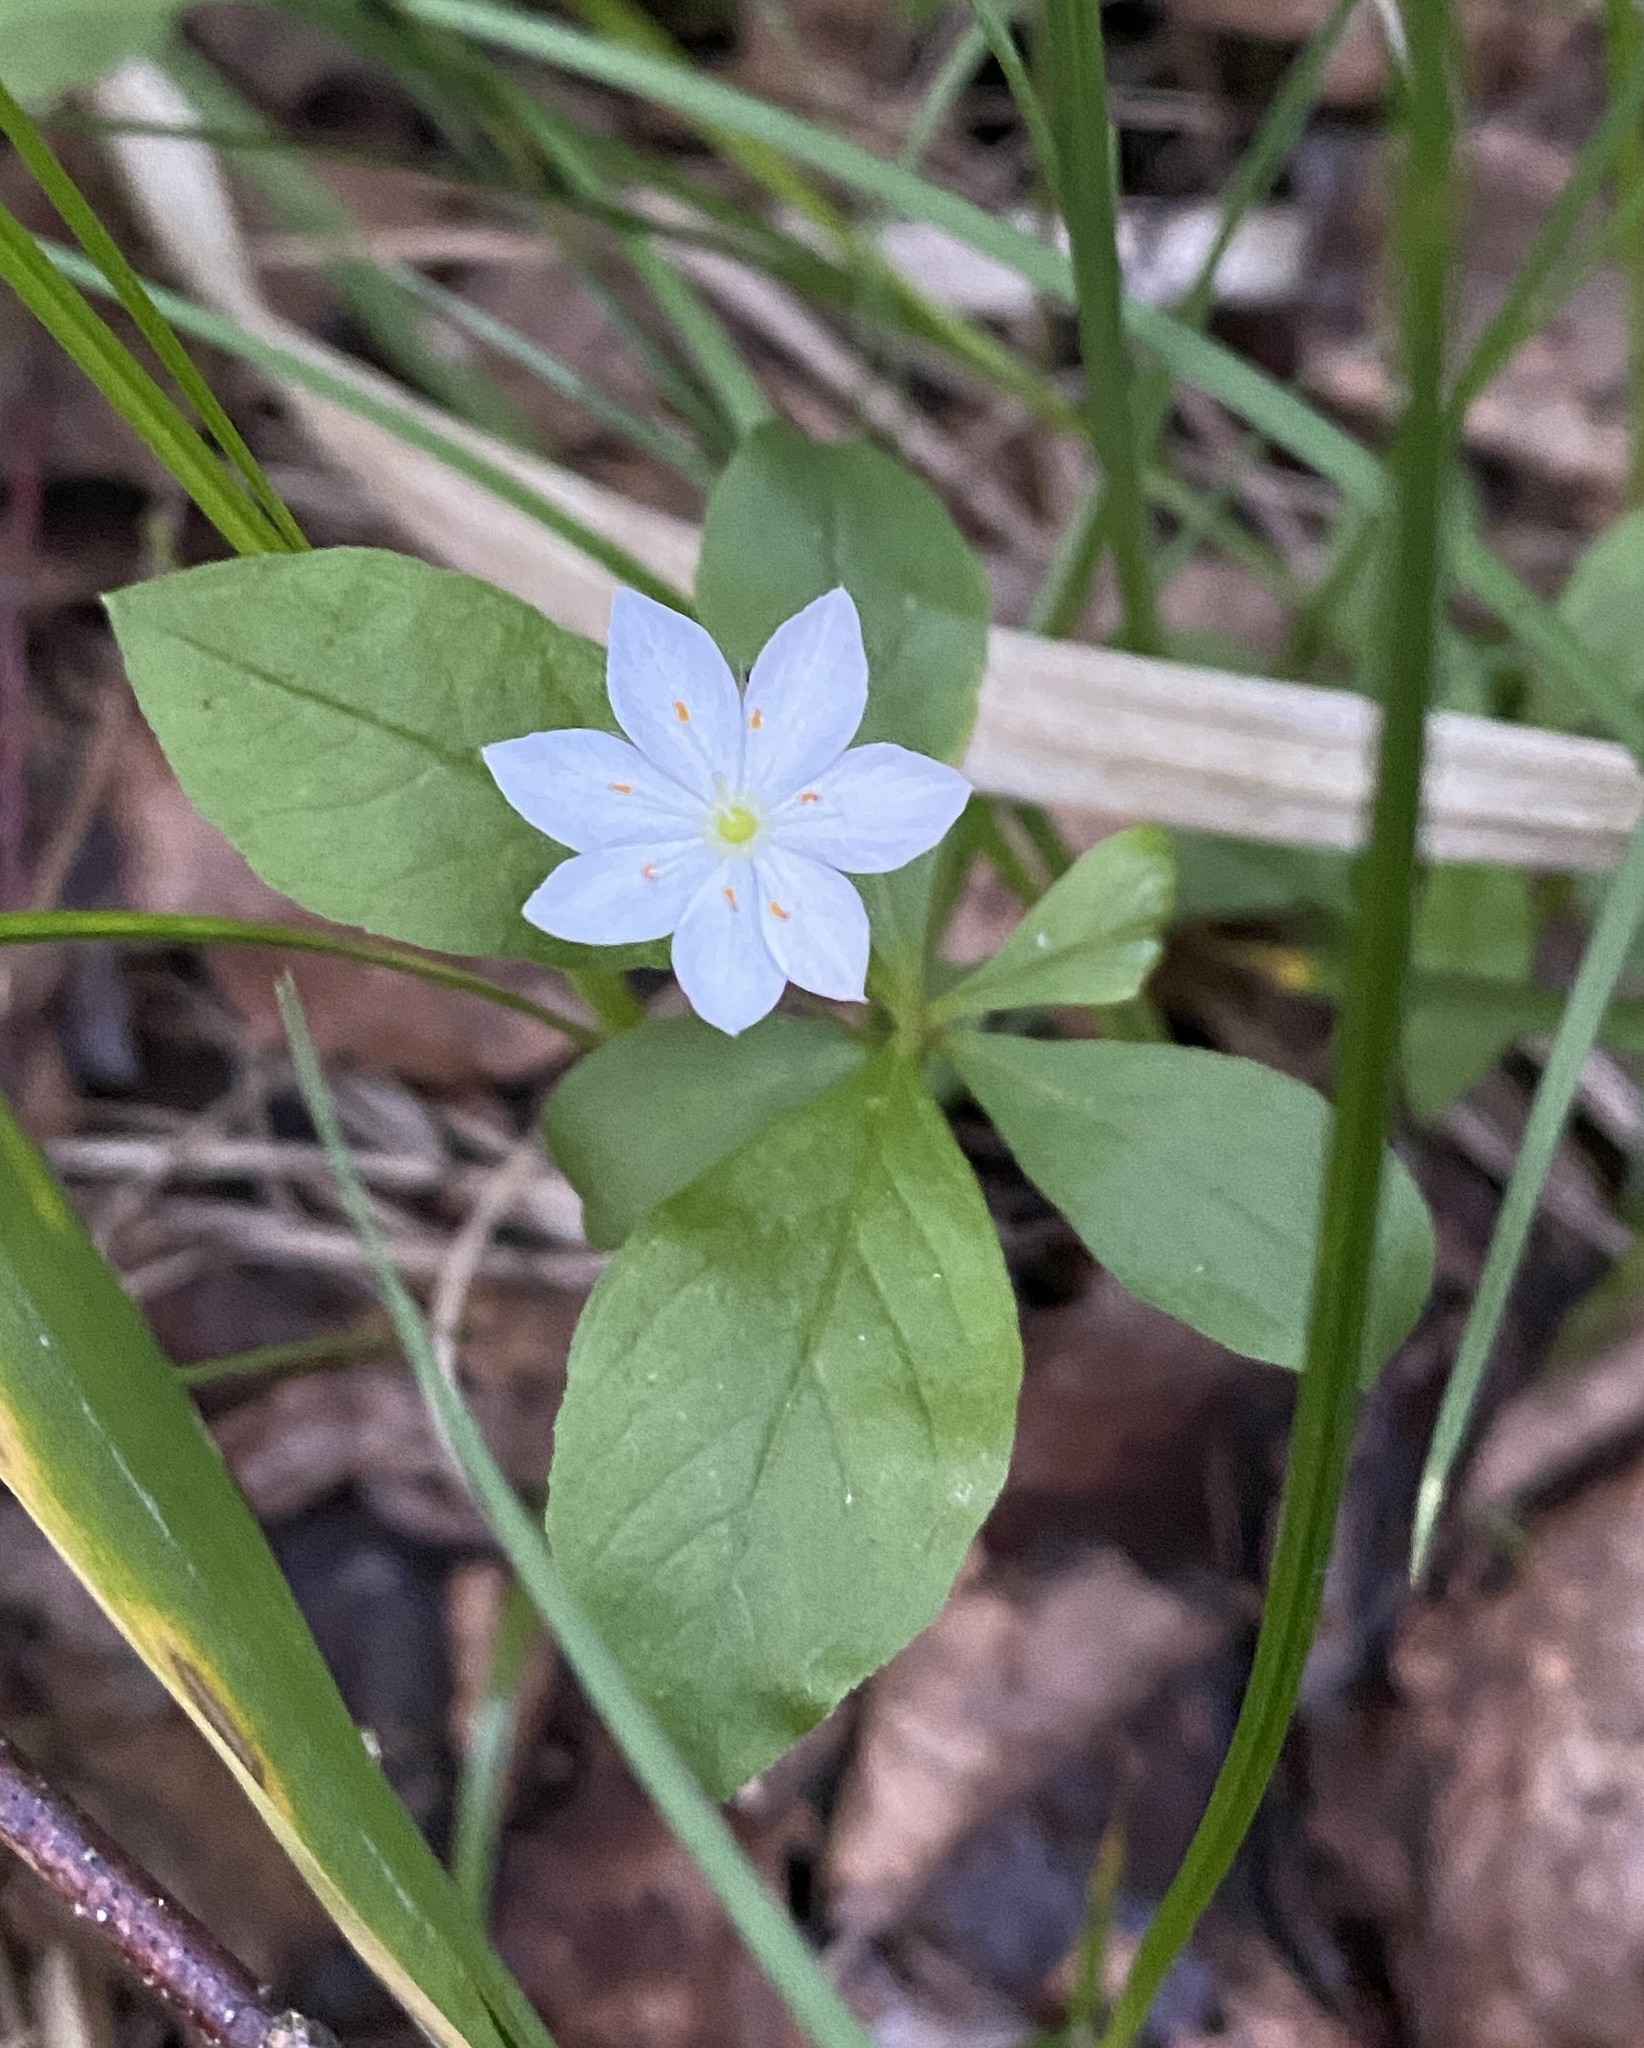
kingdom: Plantae
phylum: Tracheophyta
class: Magnoliopsida
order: Ericales
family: Primulaceae
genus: Lysimachia
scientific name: Lysimachia europaea
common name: Arctic starflower
